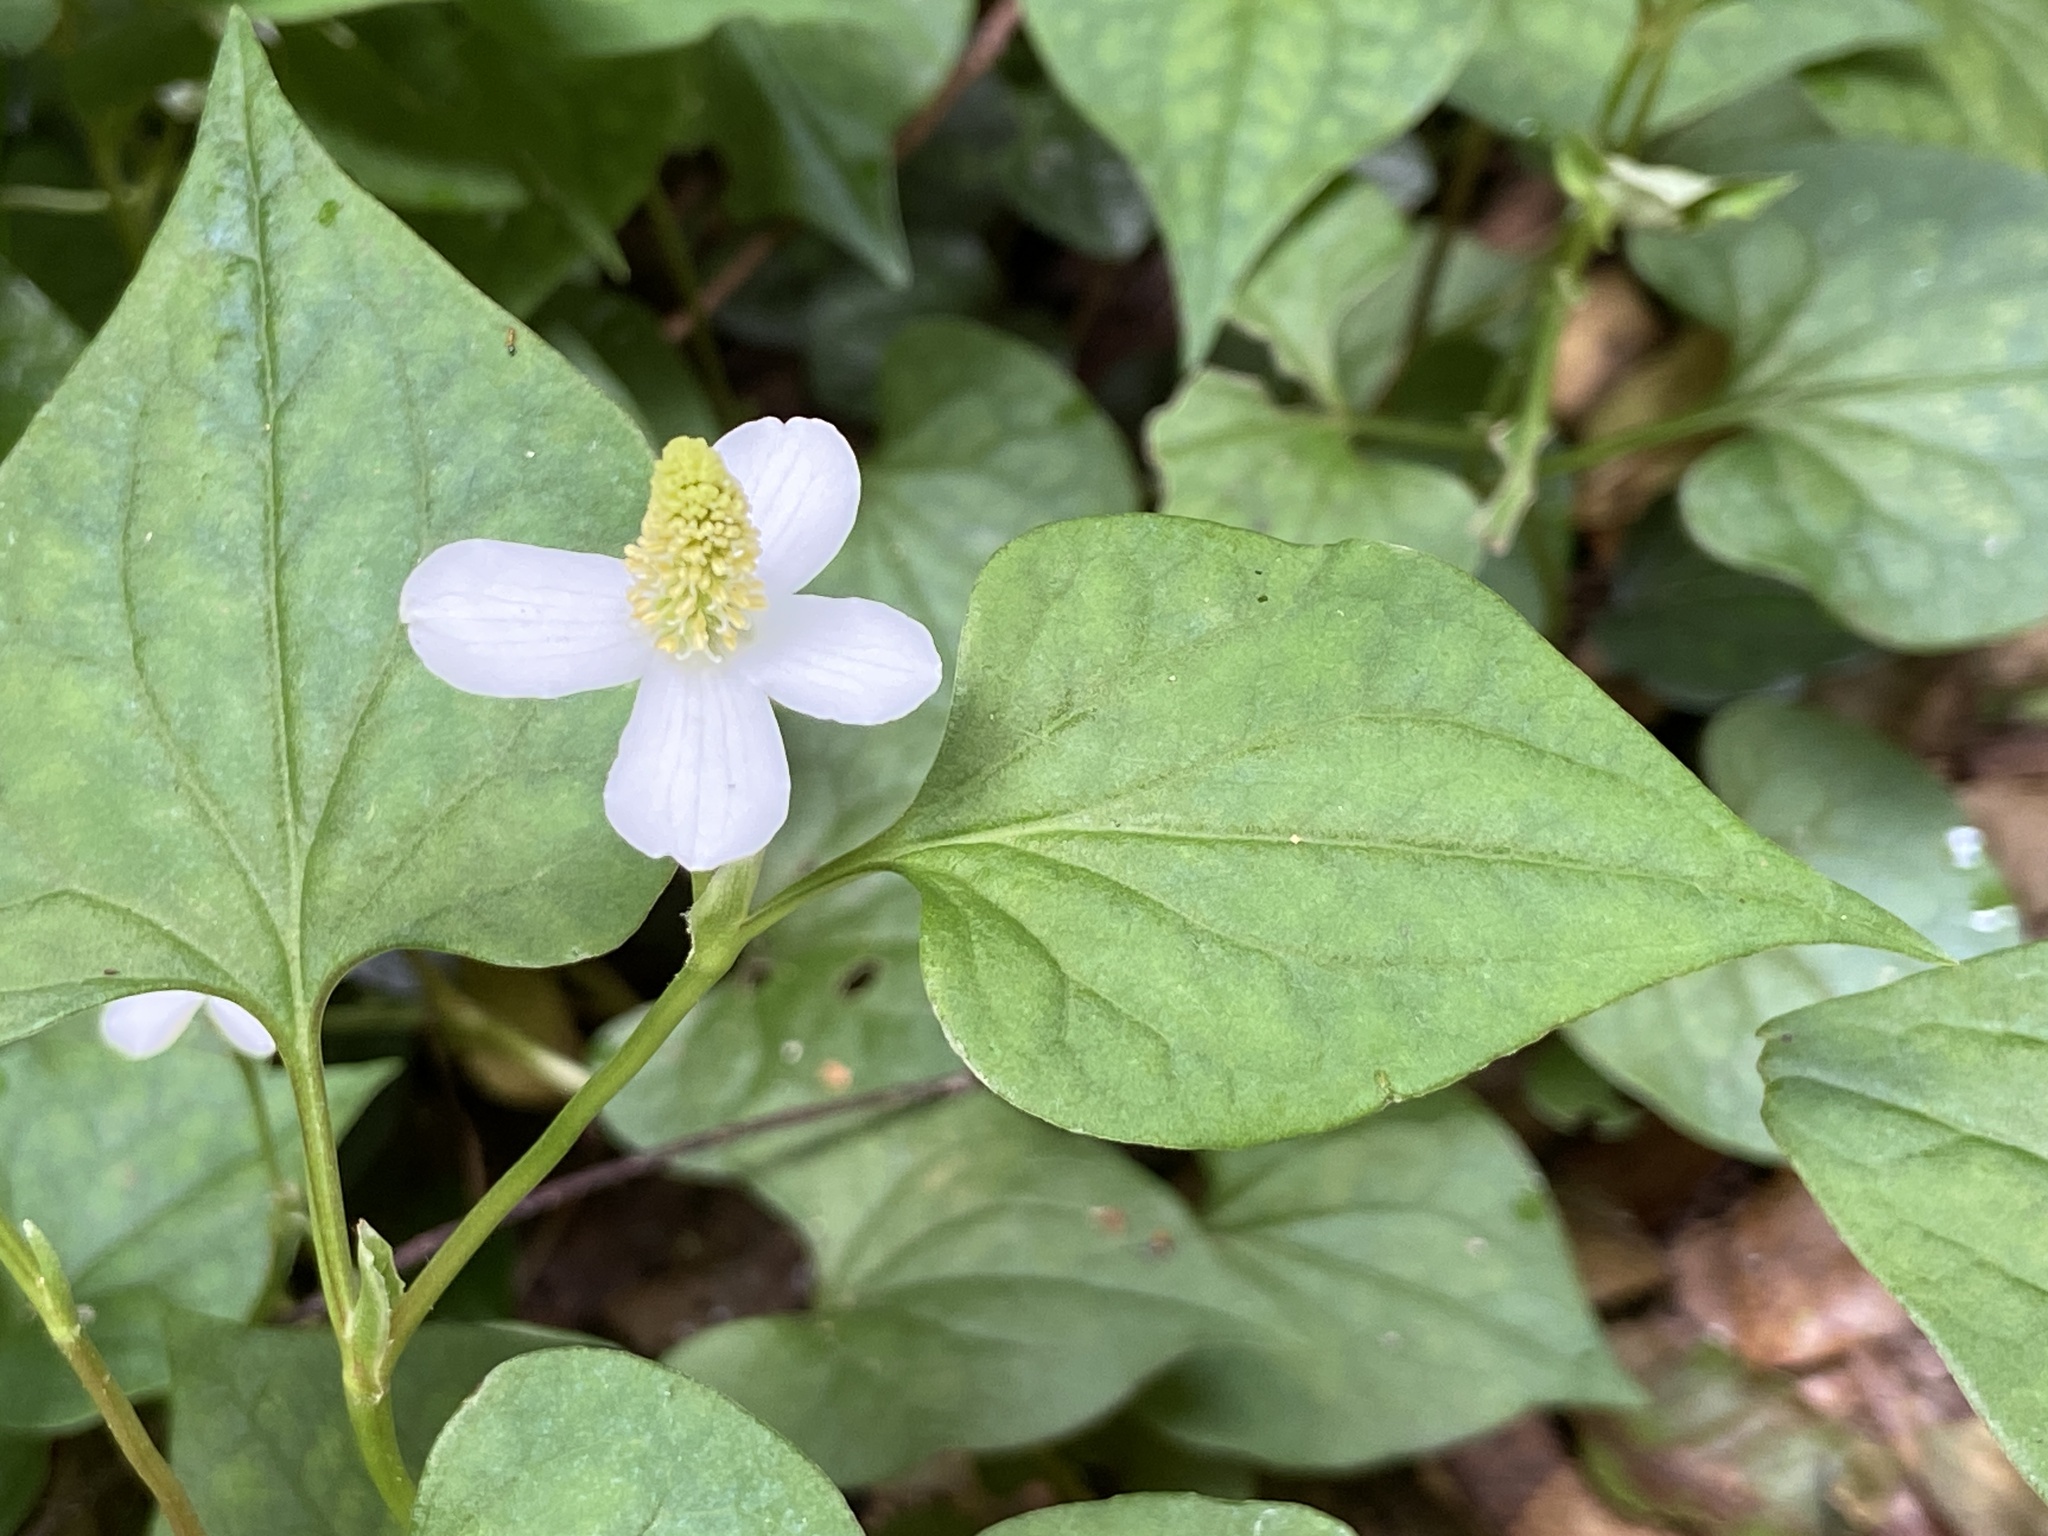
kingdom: Plantae
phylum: Tracheophyta
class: Magnoliopsida
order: Piperales
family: Saururaceae
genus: Houttuynia
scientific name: Houttuynia cordata
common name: Chameleon
